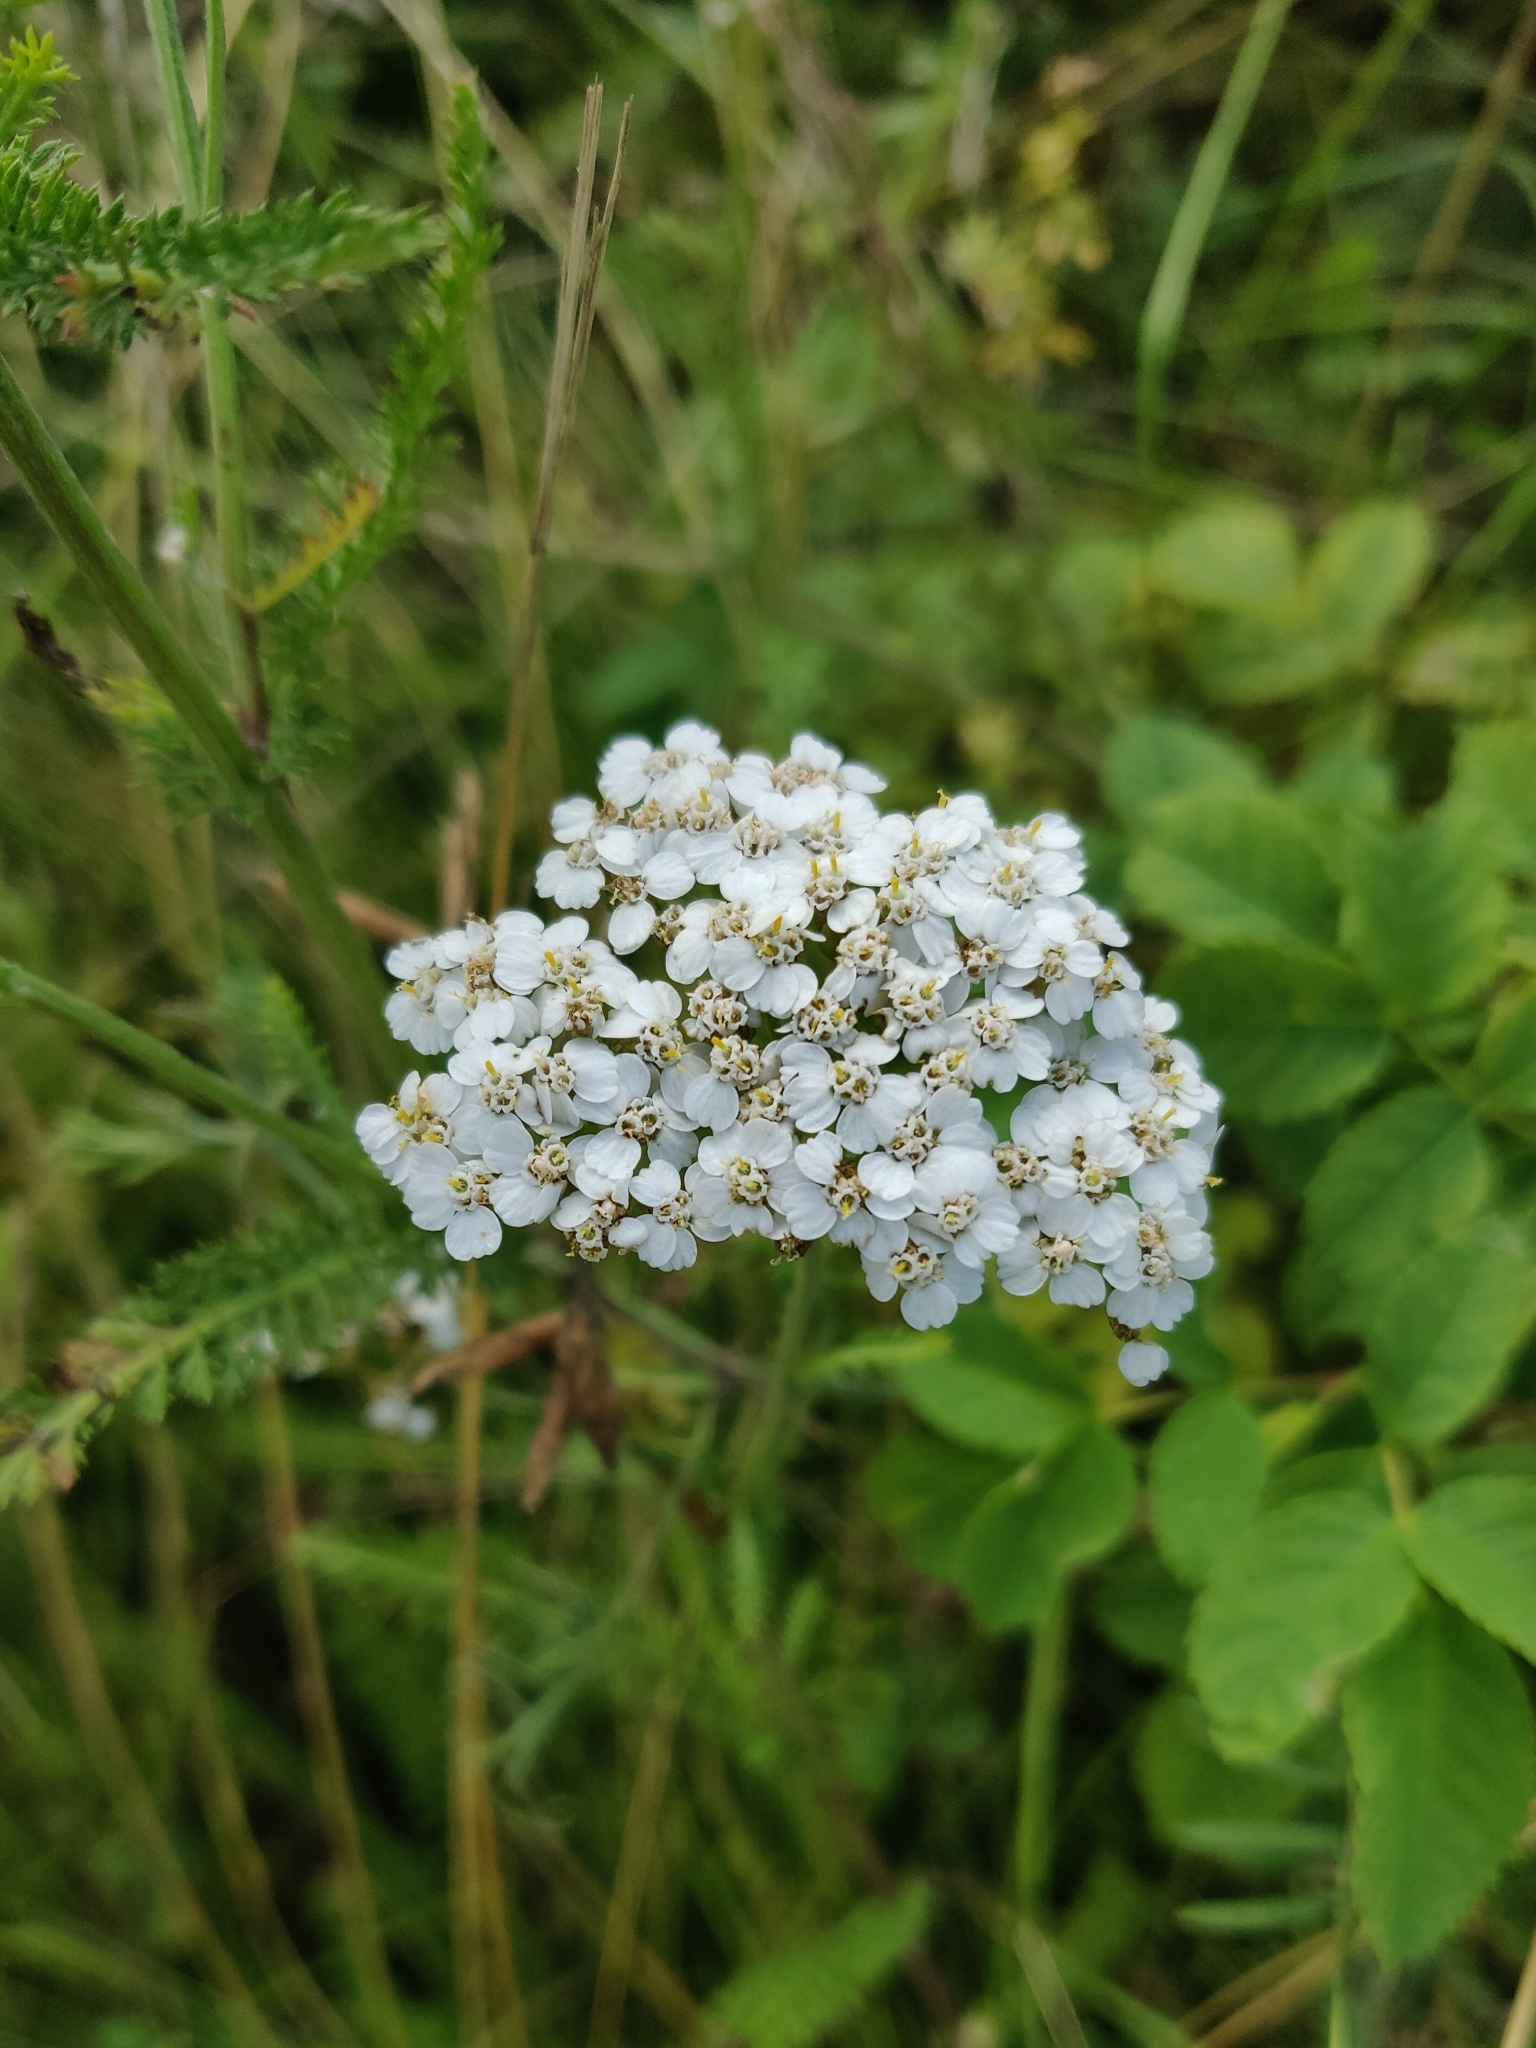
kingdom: Plantae
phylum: Tracheophyta
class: Magnoliopsida
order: Asterales
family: Asteraceae
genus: Achillea
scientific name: Achillea millefolium
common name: Yarrow
